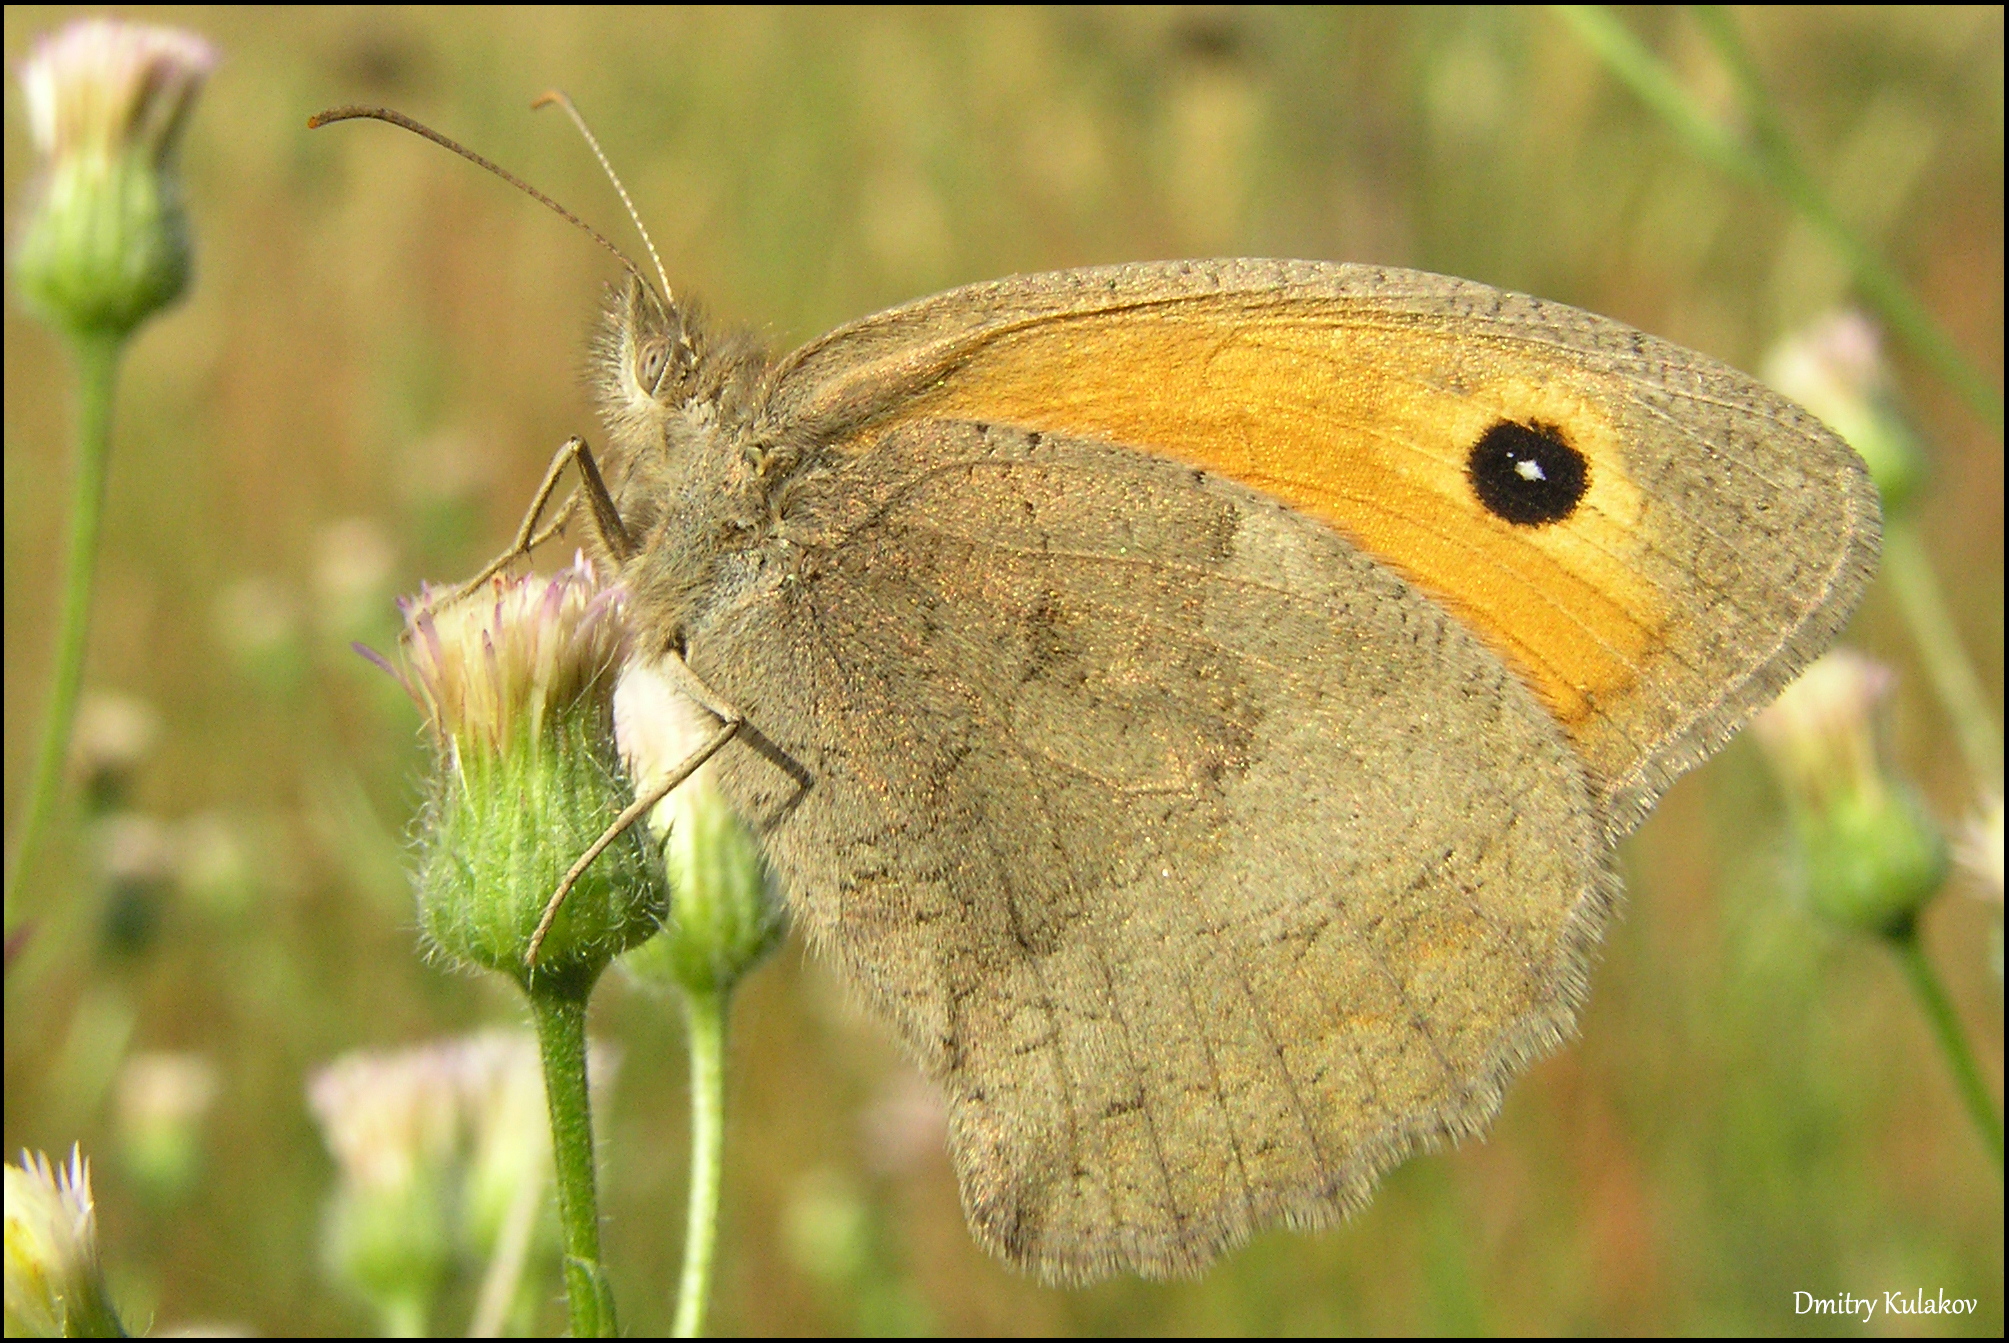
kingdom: Animalia
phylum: Arthropoda
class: Insecta
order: Lepidoptera
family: Nymphalidae
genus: Hyponephele
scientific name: Hyponephele lycaon
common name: Dusky meadow brown
